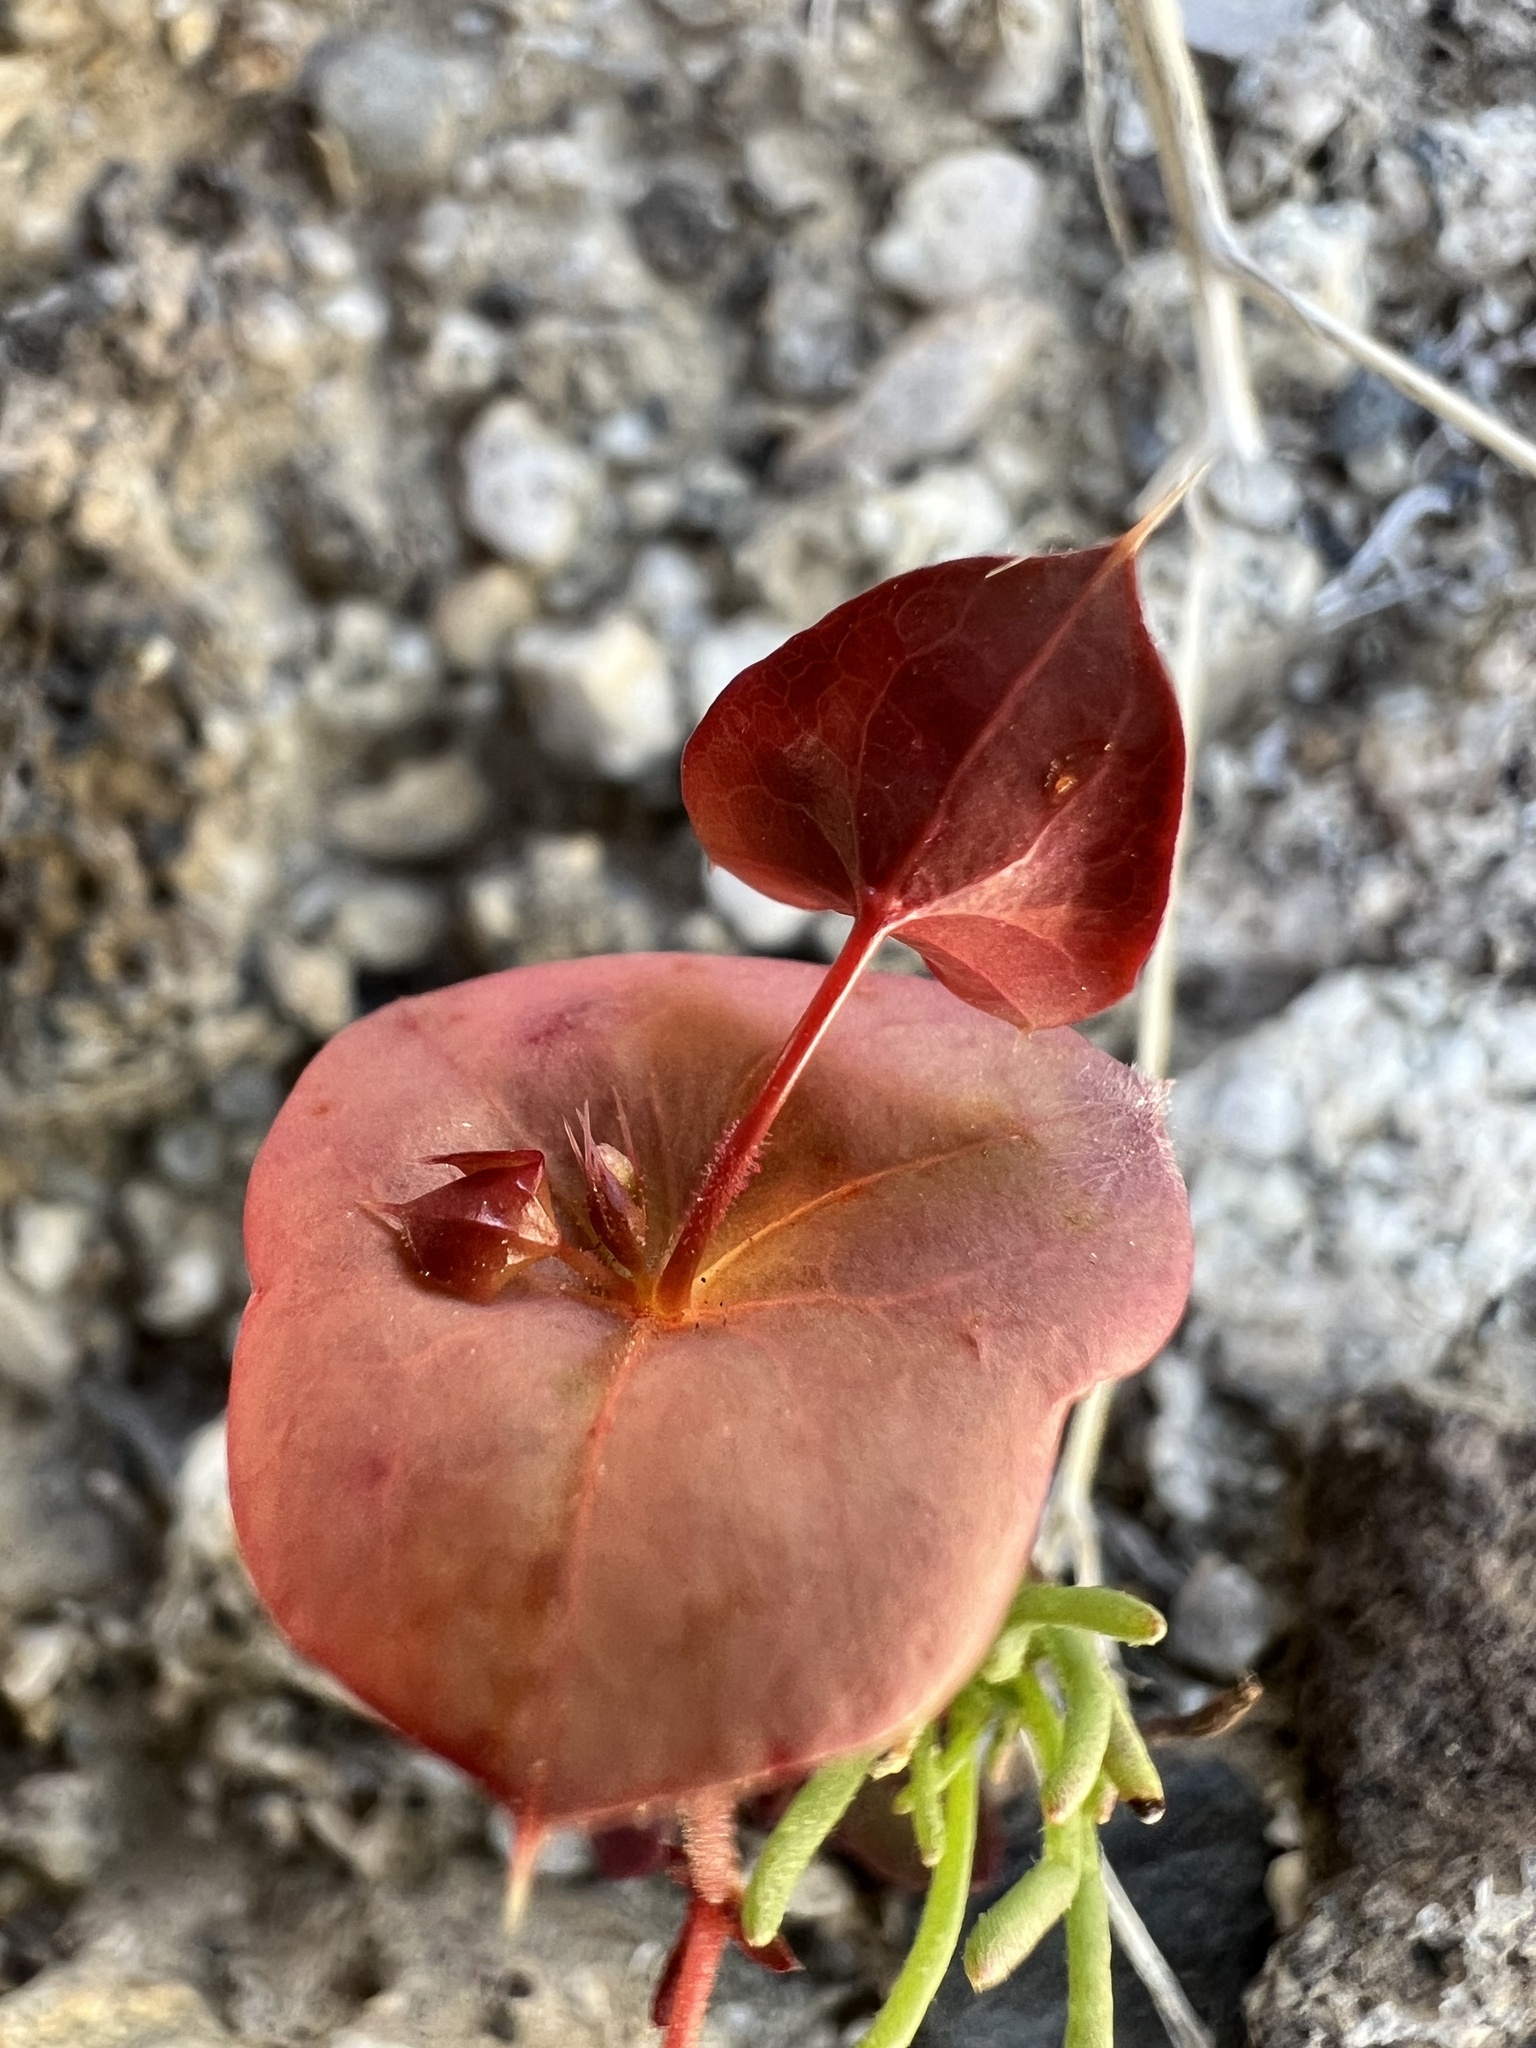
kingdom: Plantae
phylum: Tracheophyta
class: Magnoliopsida
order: Caryophyllales
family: Polygonaceae
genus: Oxytheca
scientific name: Oxytheca perfoliata
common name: Round-leaf puncturebract
